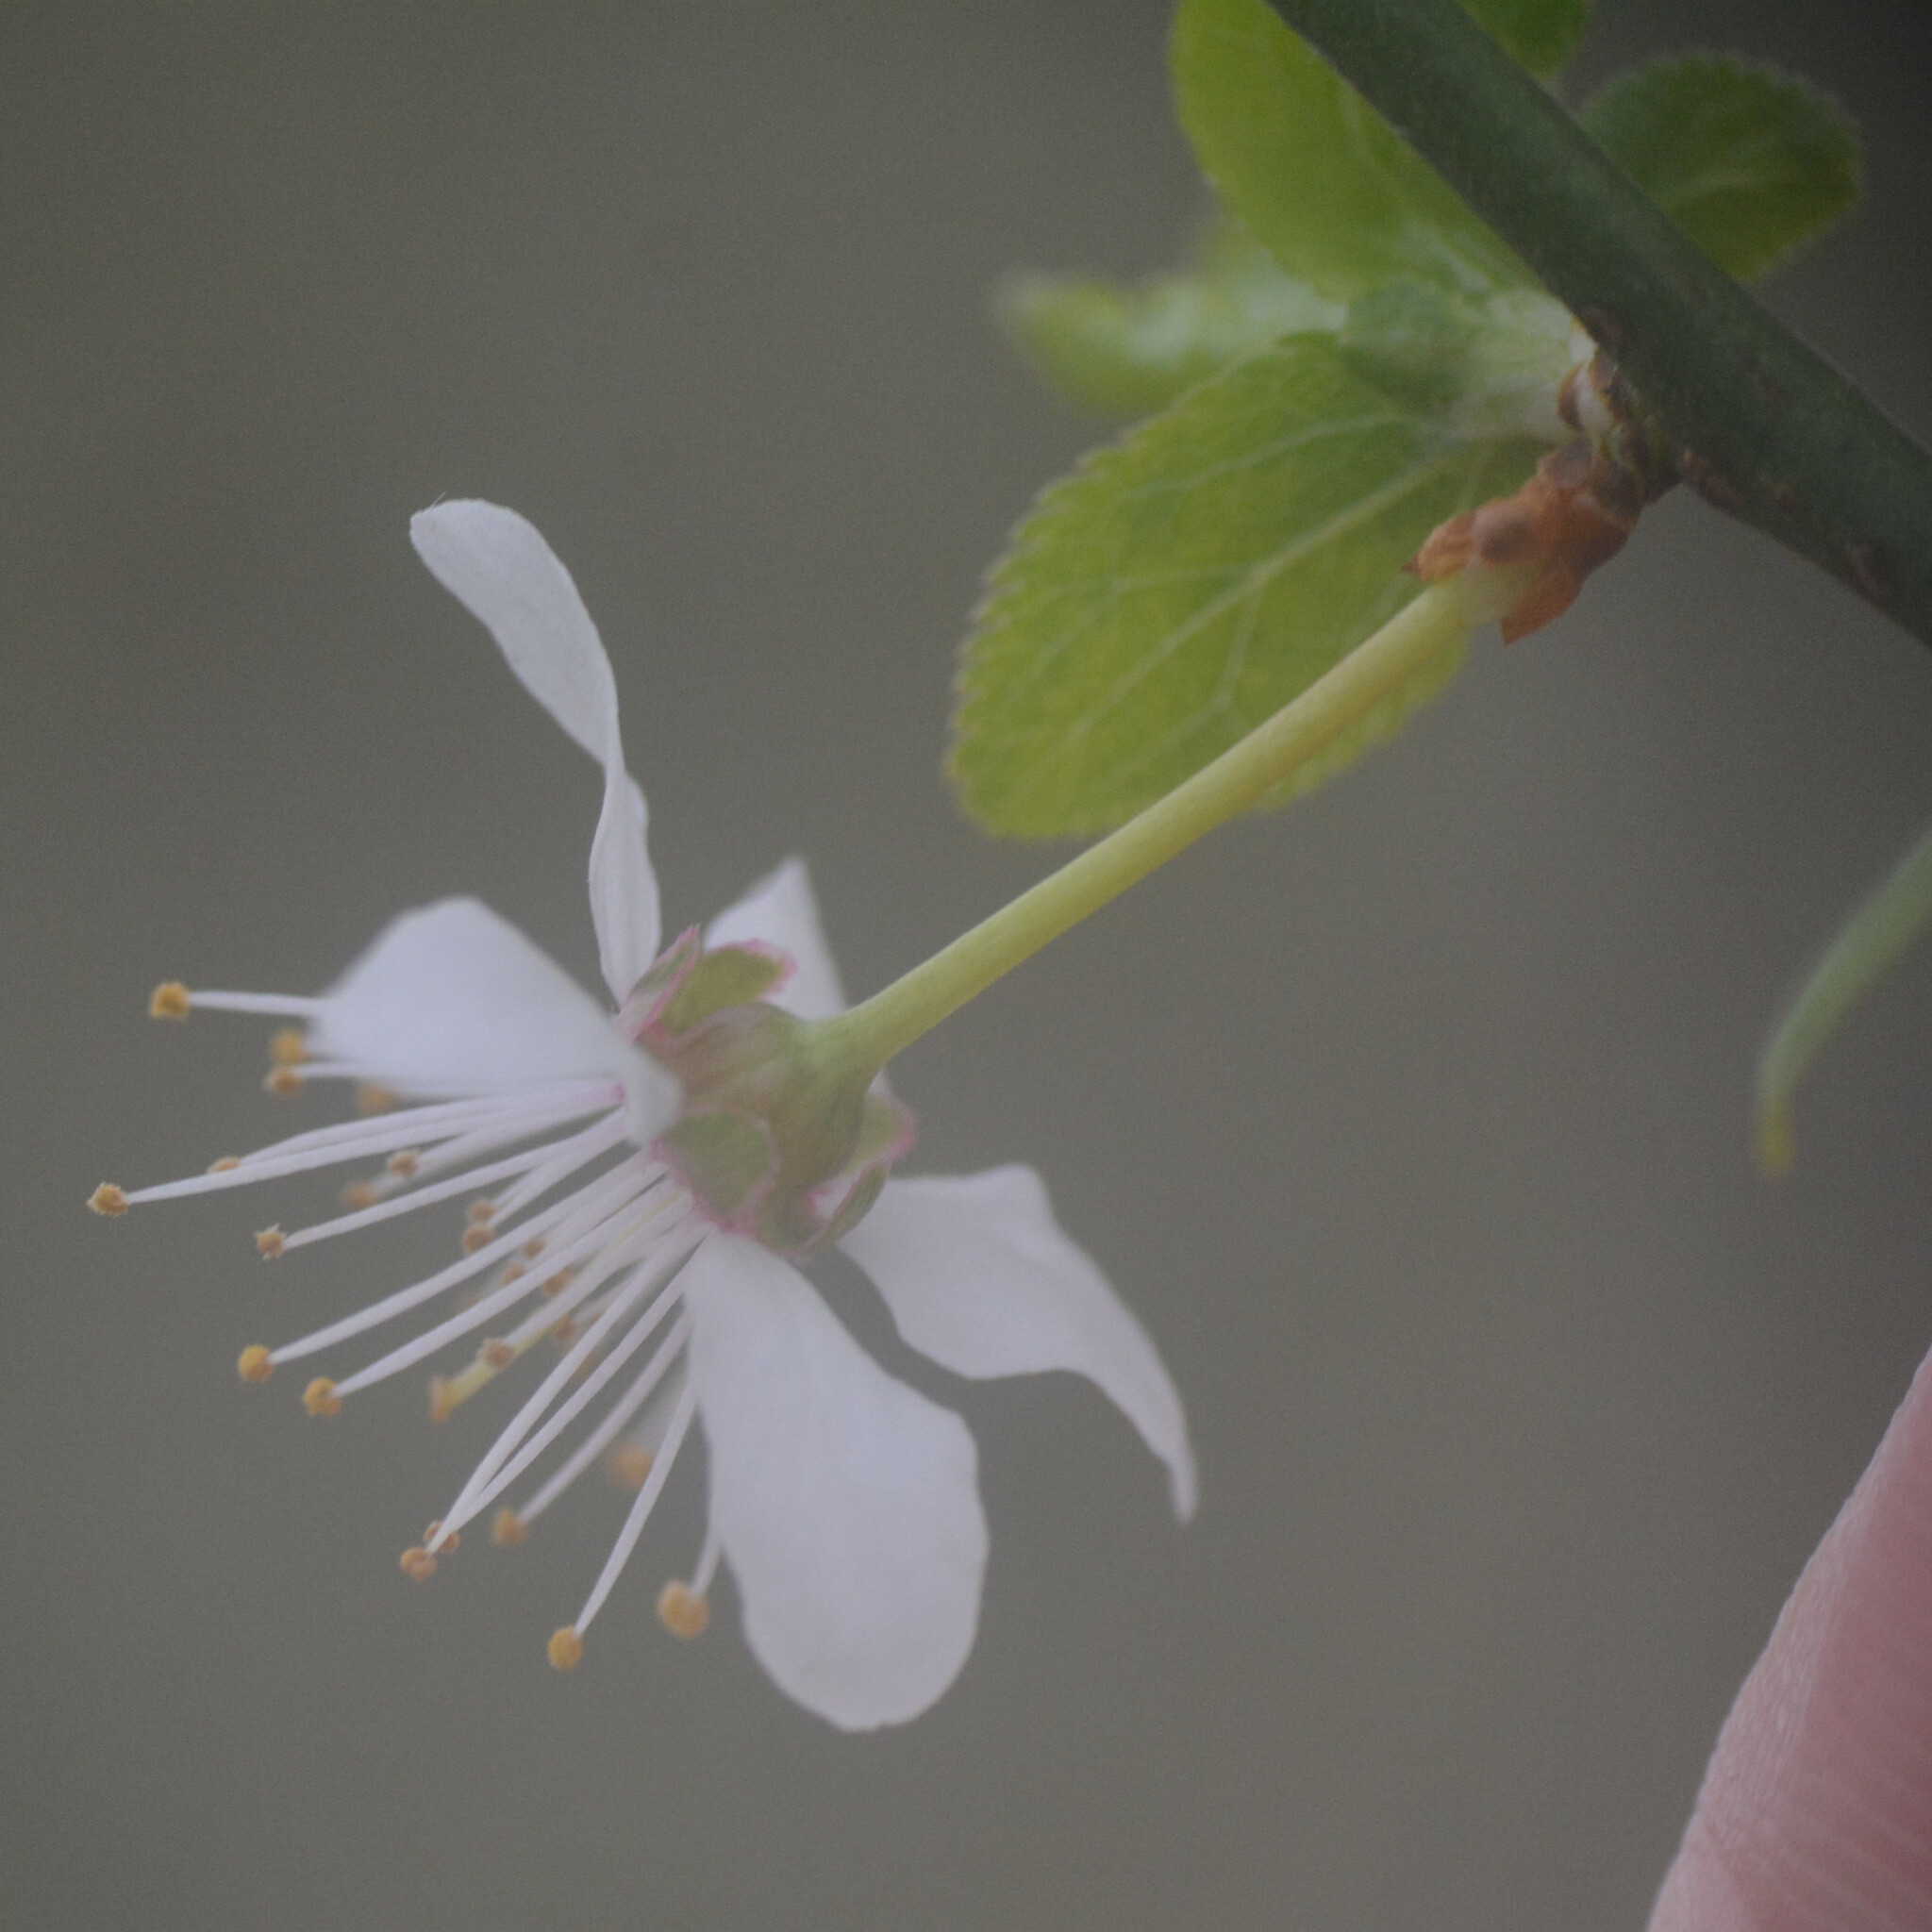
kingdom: Plantae
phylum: Tracheophyta
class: Magnoliopsida
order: Rosales
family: Rosaceae
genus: Prunus
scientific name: Prunus cerasifera
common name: Cherry plum
